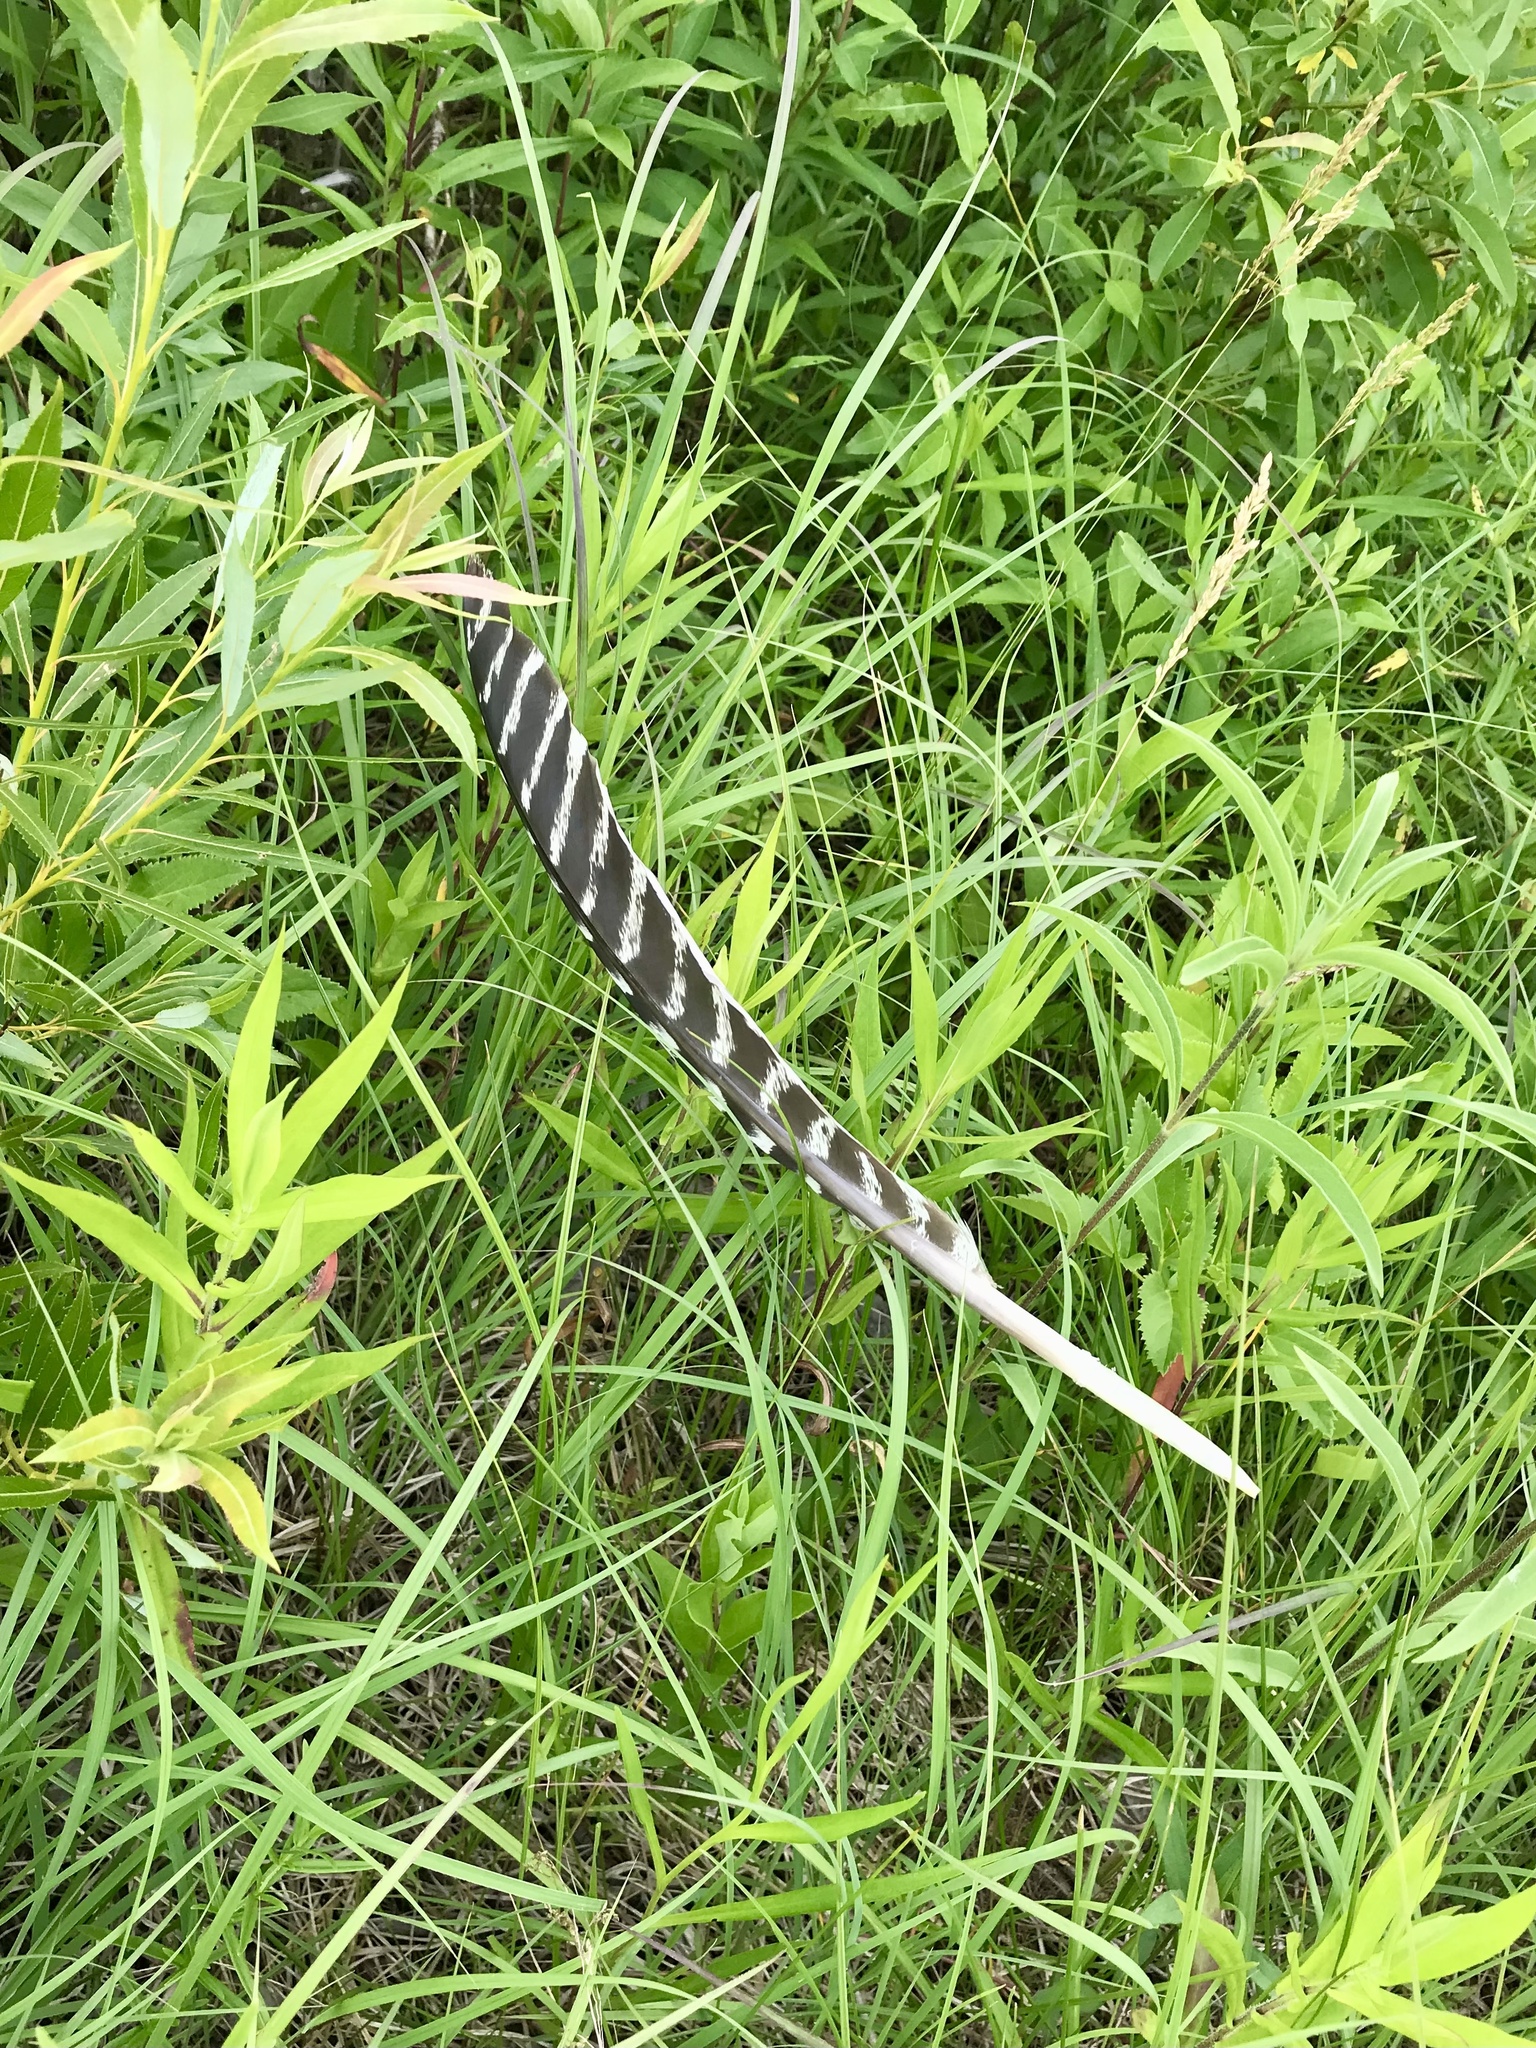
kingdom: Animalia
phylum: Chordata
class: Aves
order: Galliformes
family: Phasianidae
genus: Meleagris
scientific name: Meleagris gallopavo
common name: Wild turkey
